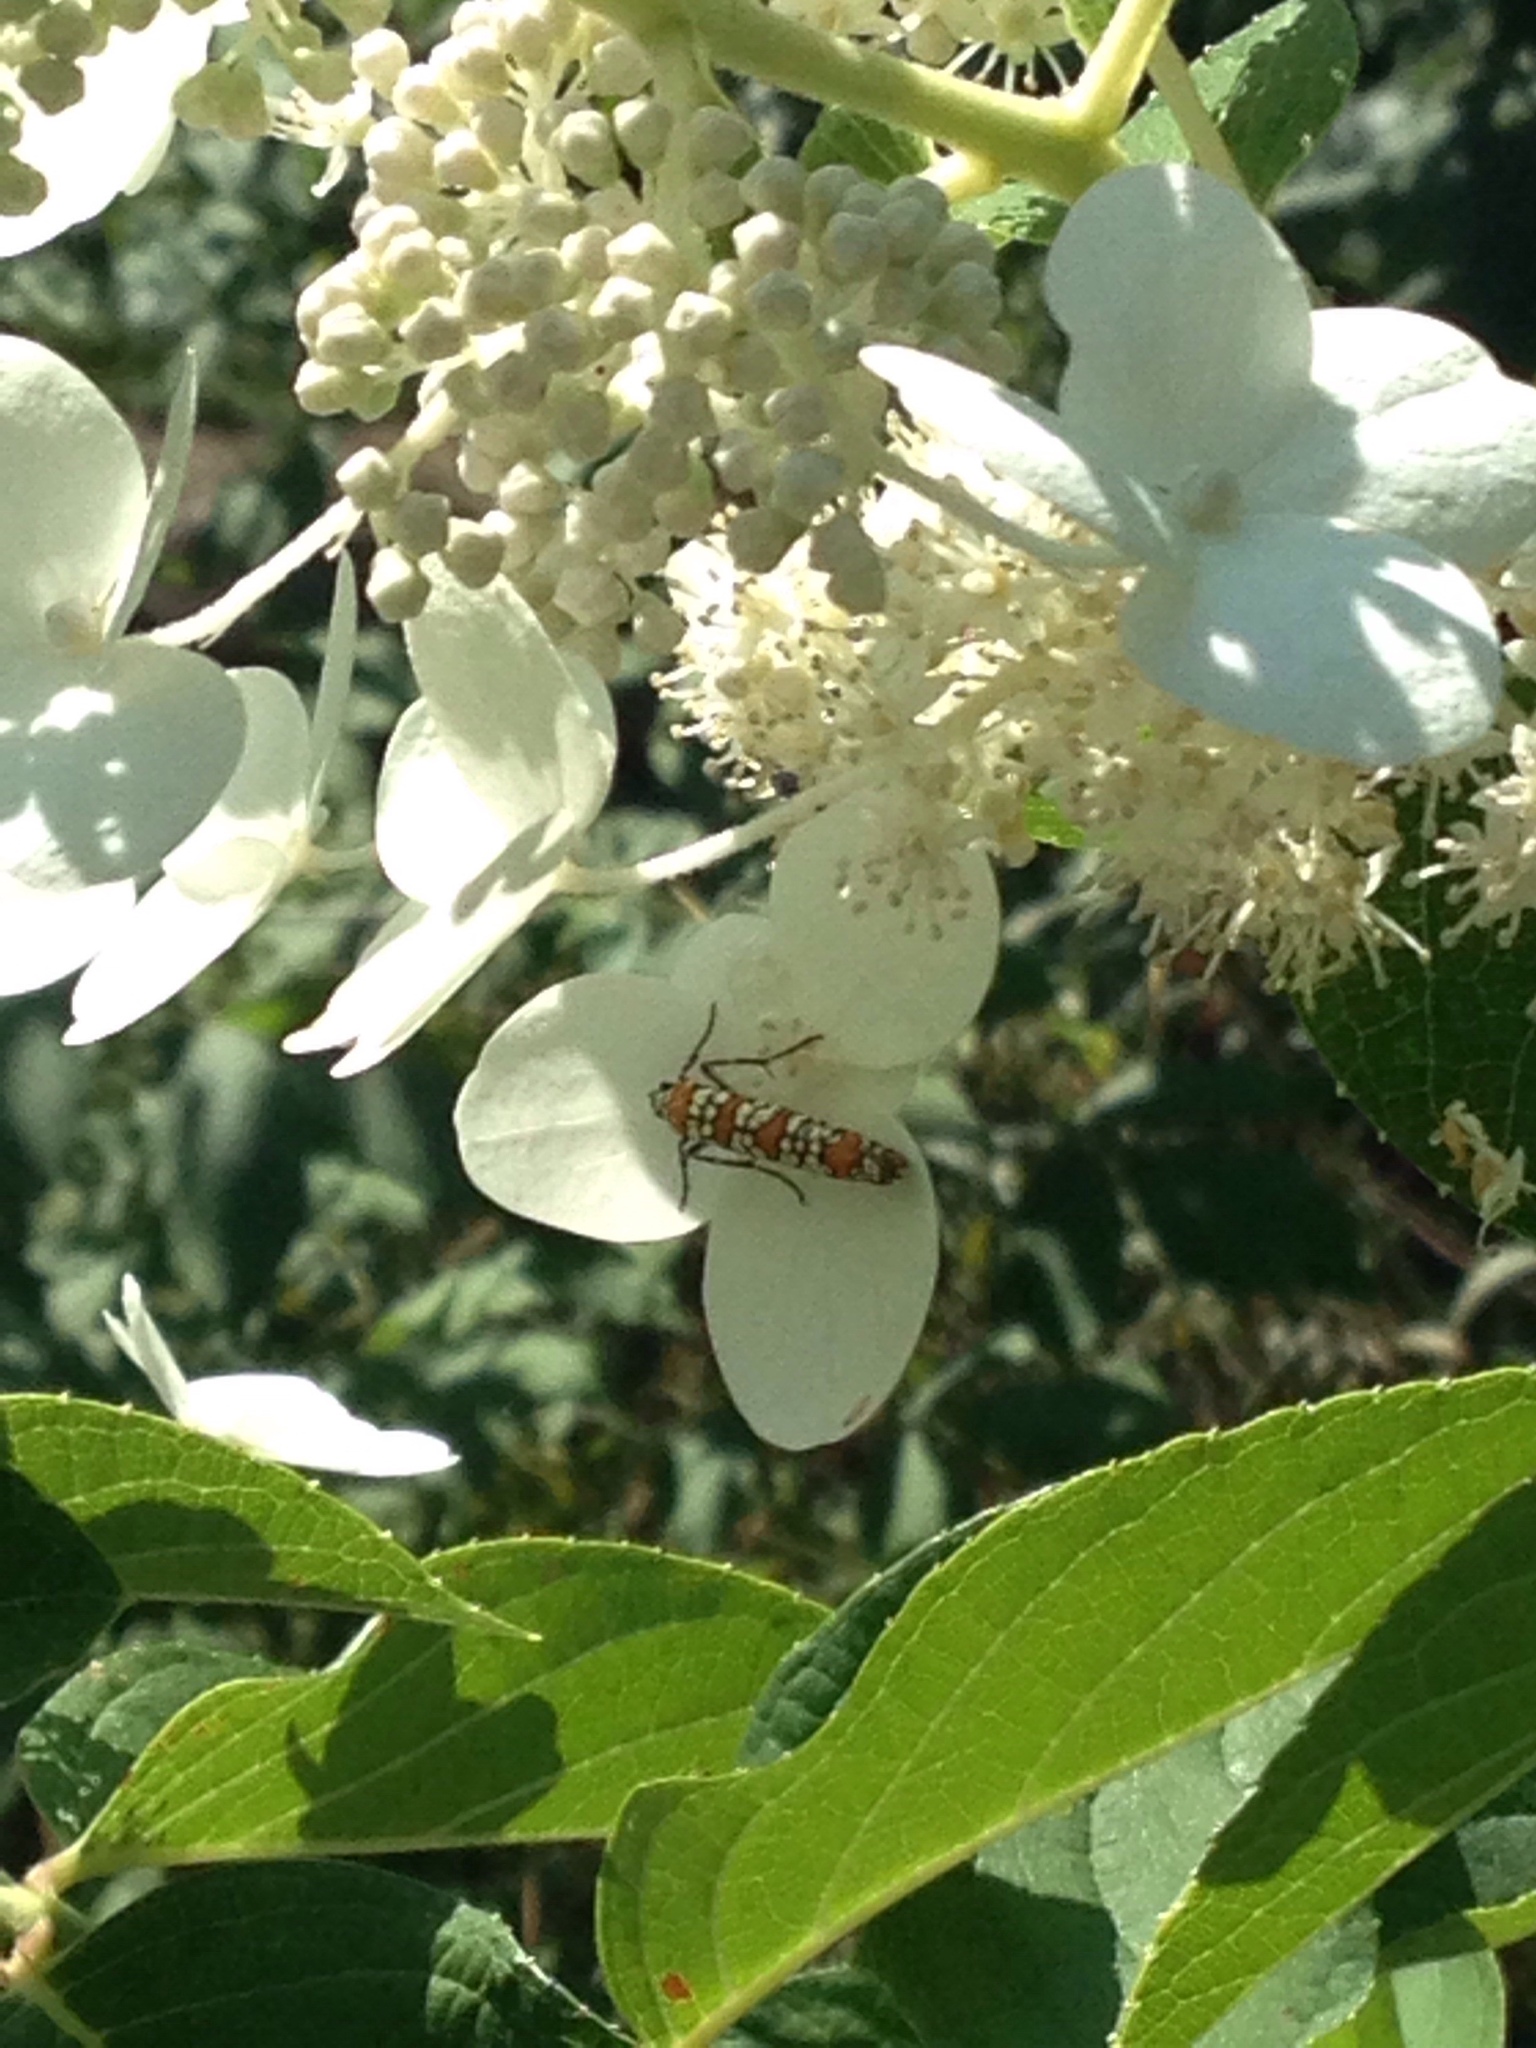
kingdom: Animalia
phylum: Arthropoda
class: Insecta
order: Lepidoptera
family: Attevidae
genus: Atteva
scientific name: Atteva punctella
